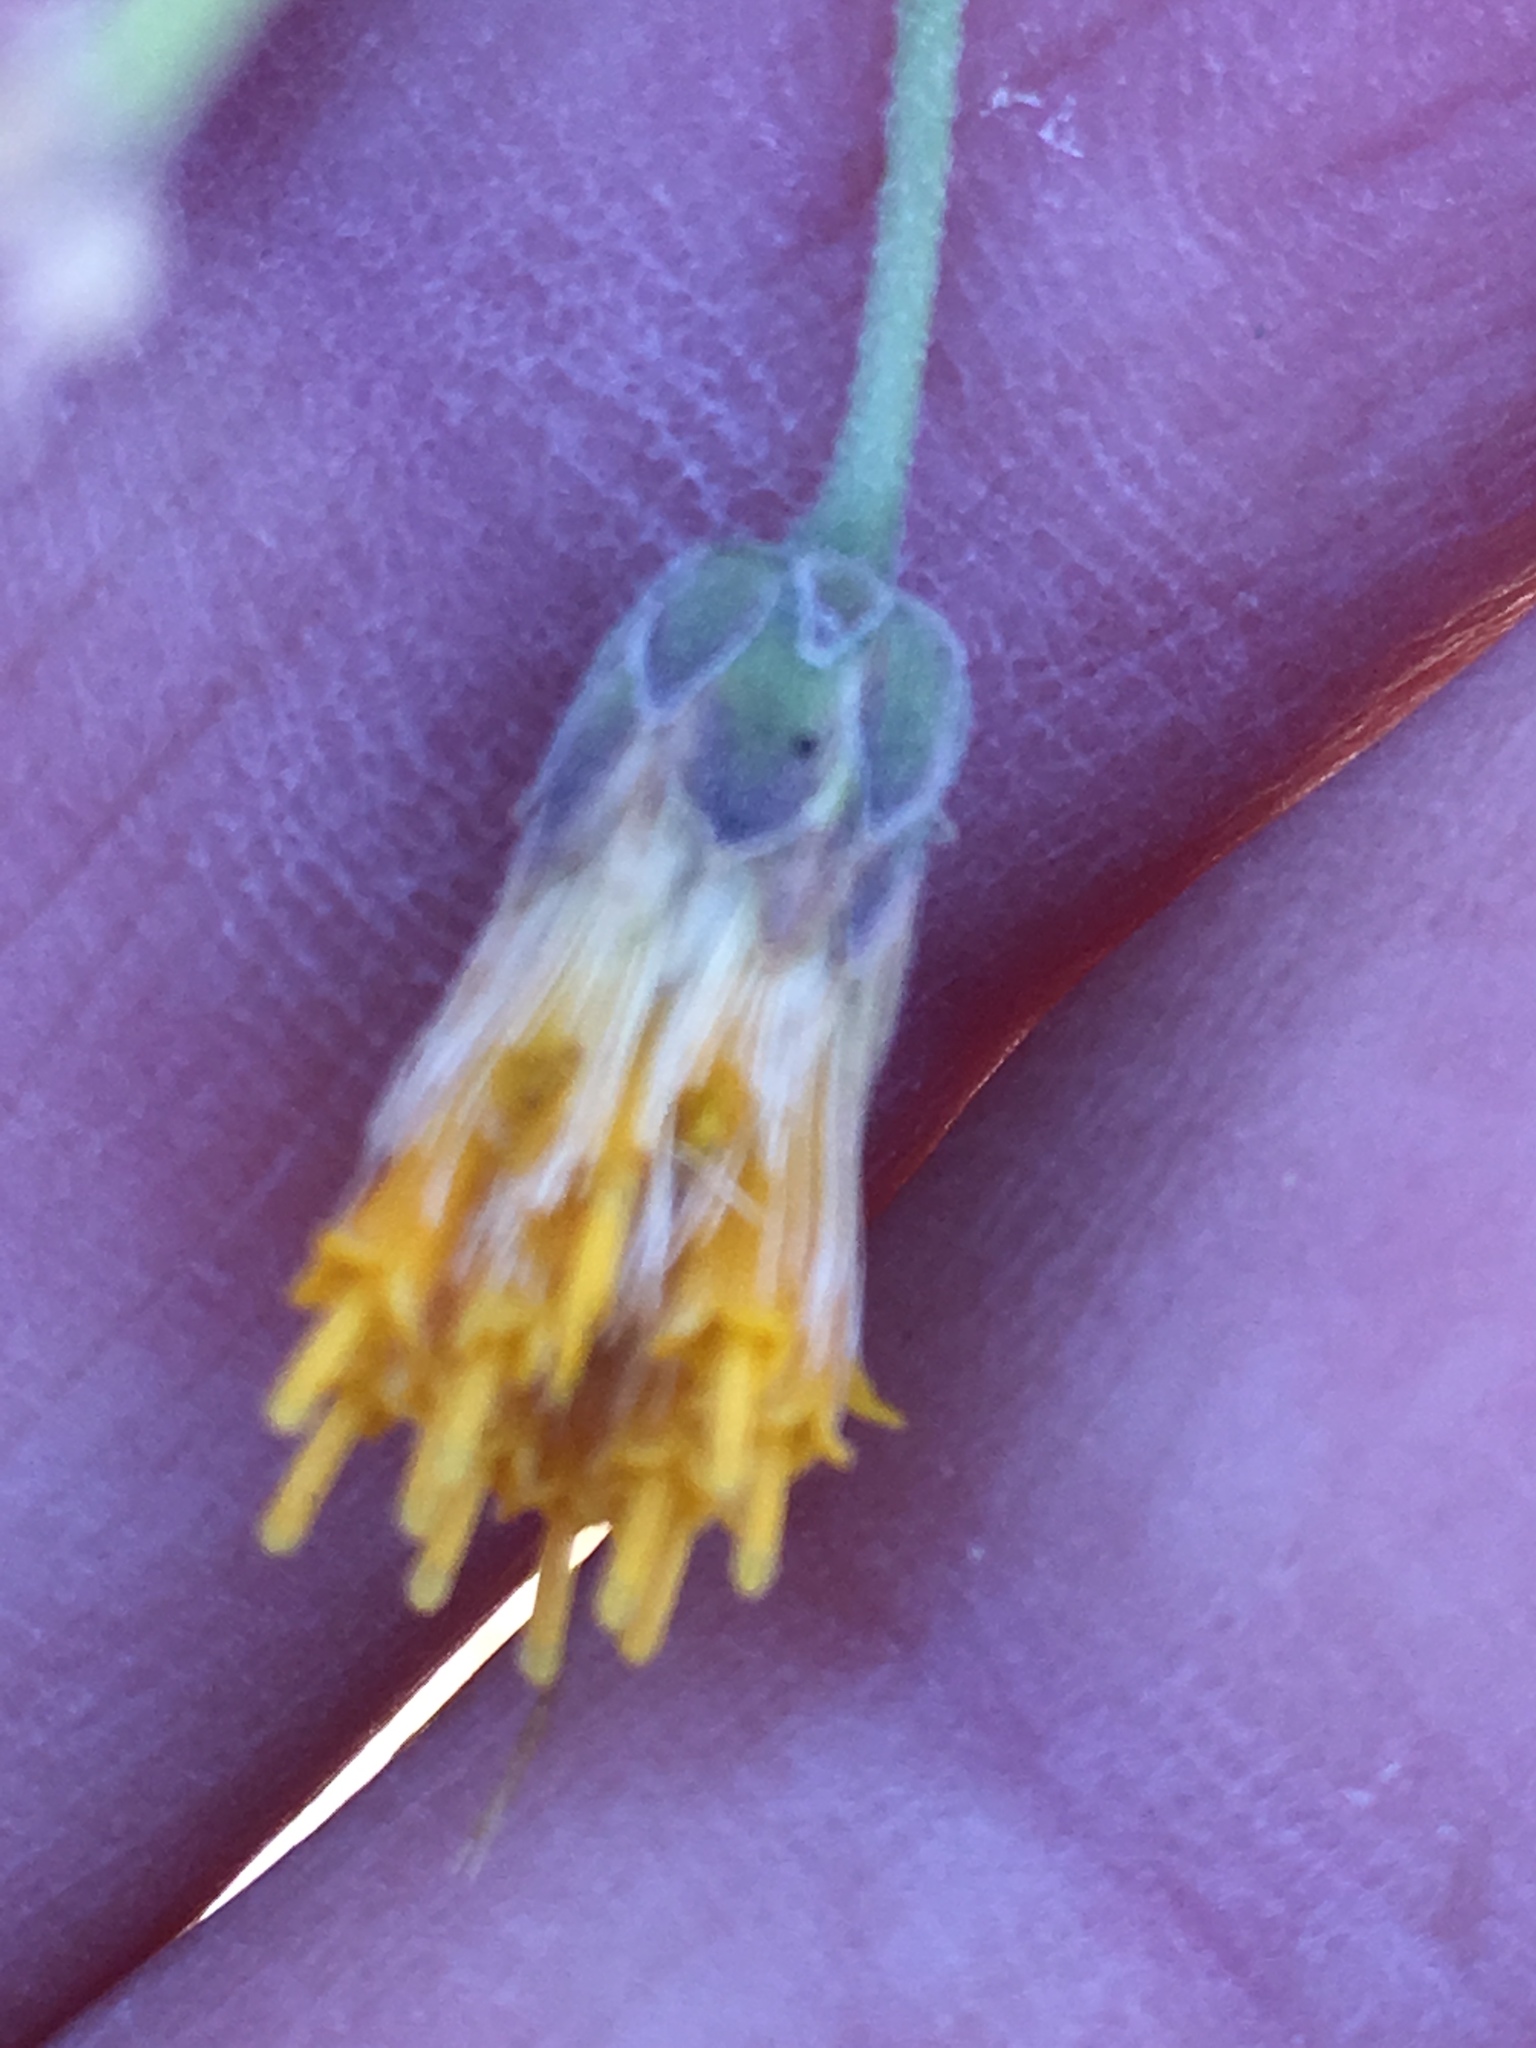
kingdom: Plantae
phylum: Tracheophyta
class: Magnoliopsida
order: Asterales
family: Asteraceae
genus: Bebbia
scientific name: Bebbia juncea
